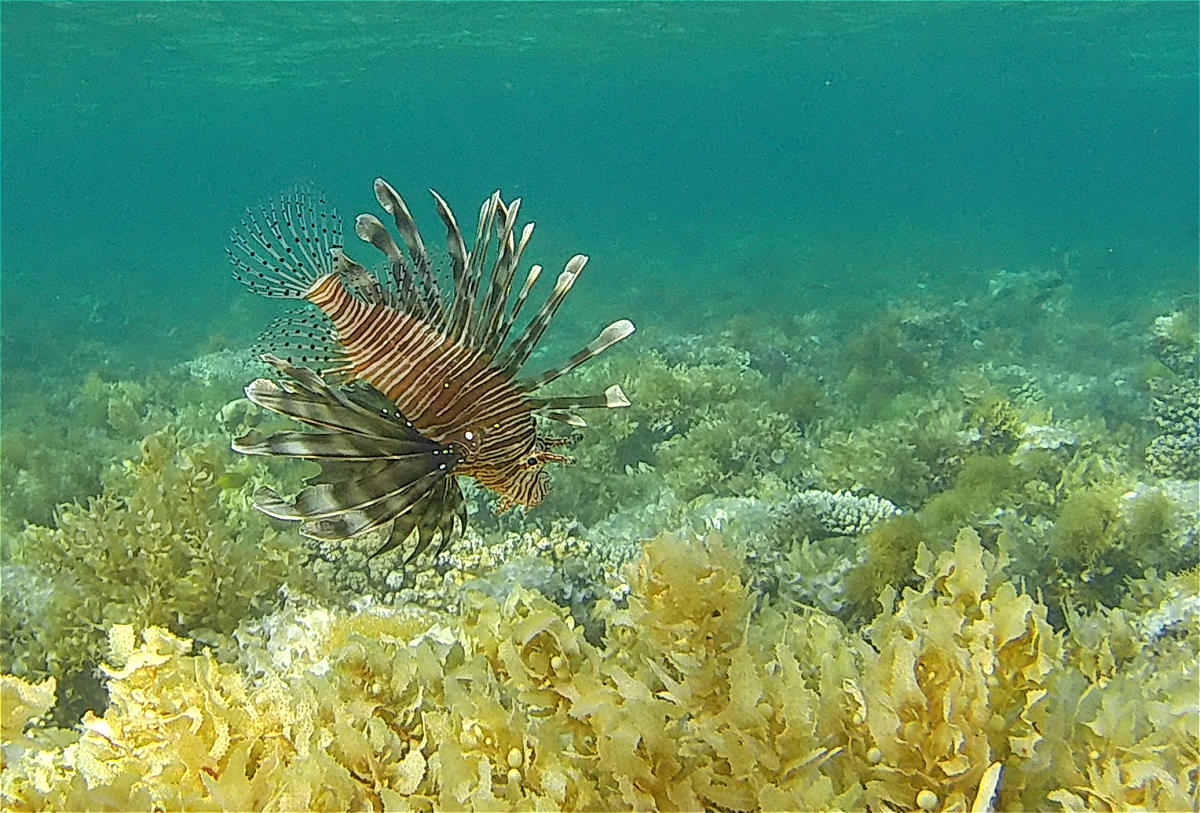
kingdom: Animalia
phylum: Chordata
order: Scorpaeniformes
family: Scorpaenidae
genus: Pterois
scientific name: Pterois miles
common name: Devil firefish
